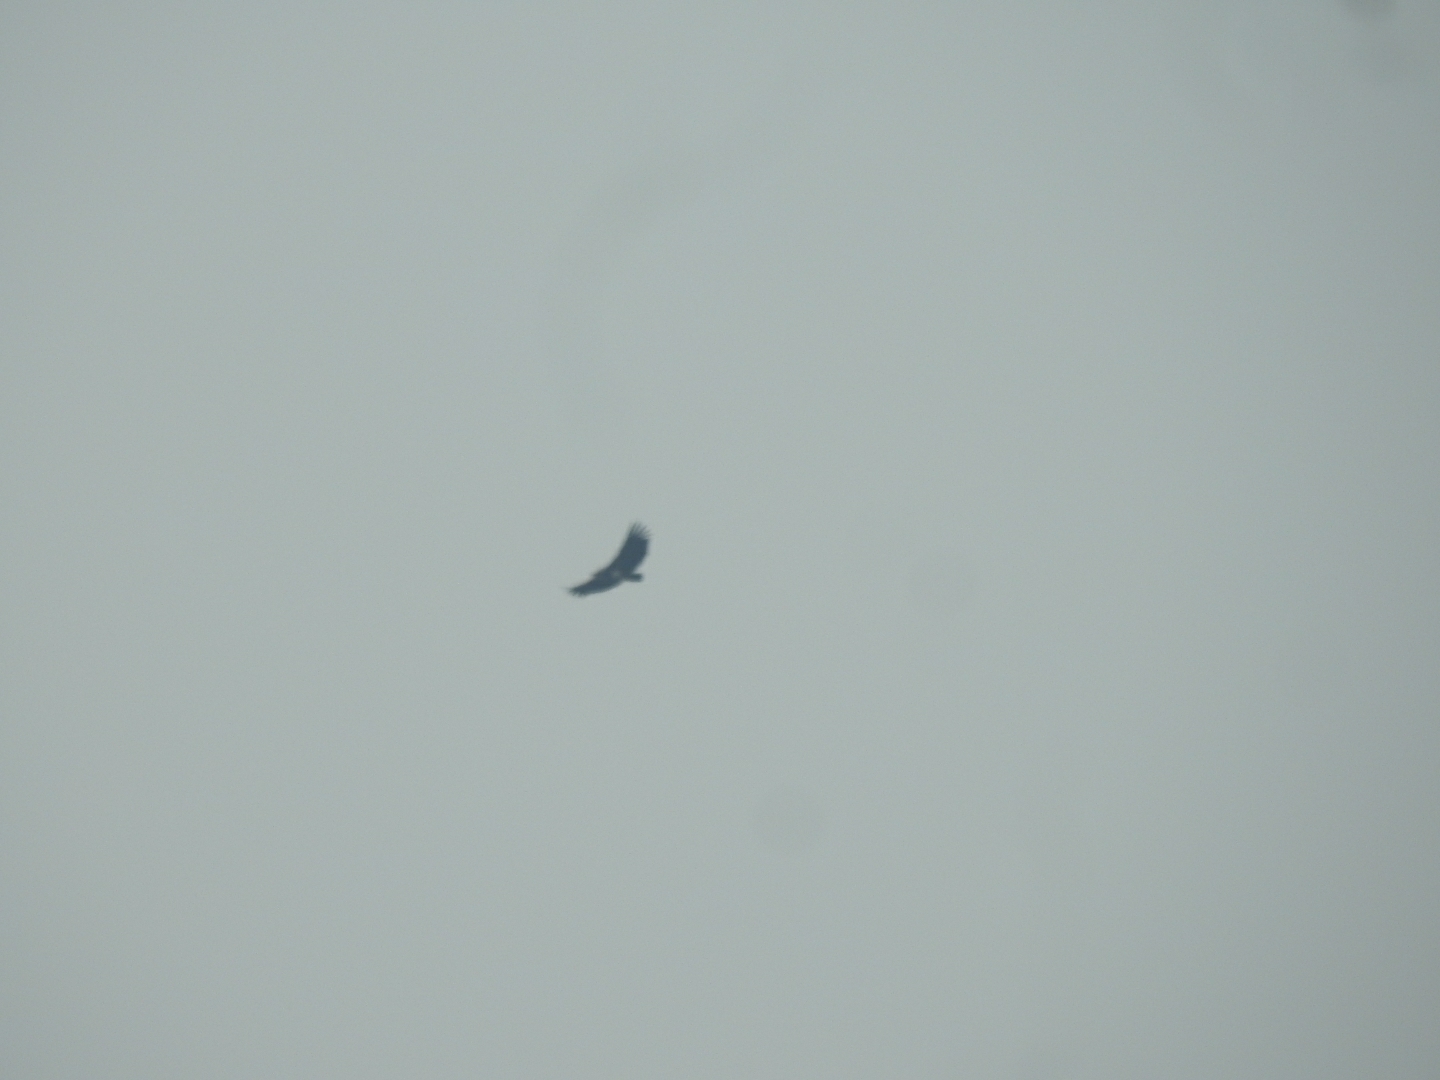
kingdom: Animalia
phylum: Chordata
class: Aves
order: Accipitriformes
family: Accipitridae
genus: Sarcogyps
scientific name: Sarcogyps calvus
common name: Red-headed vulture
